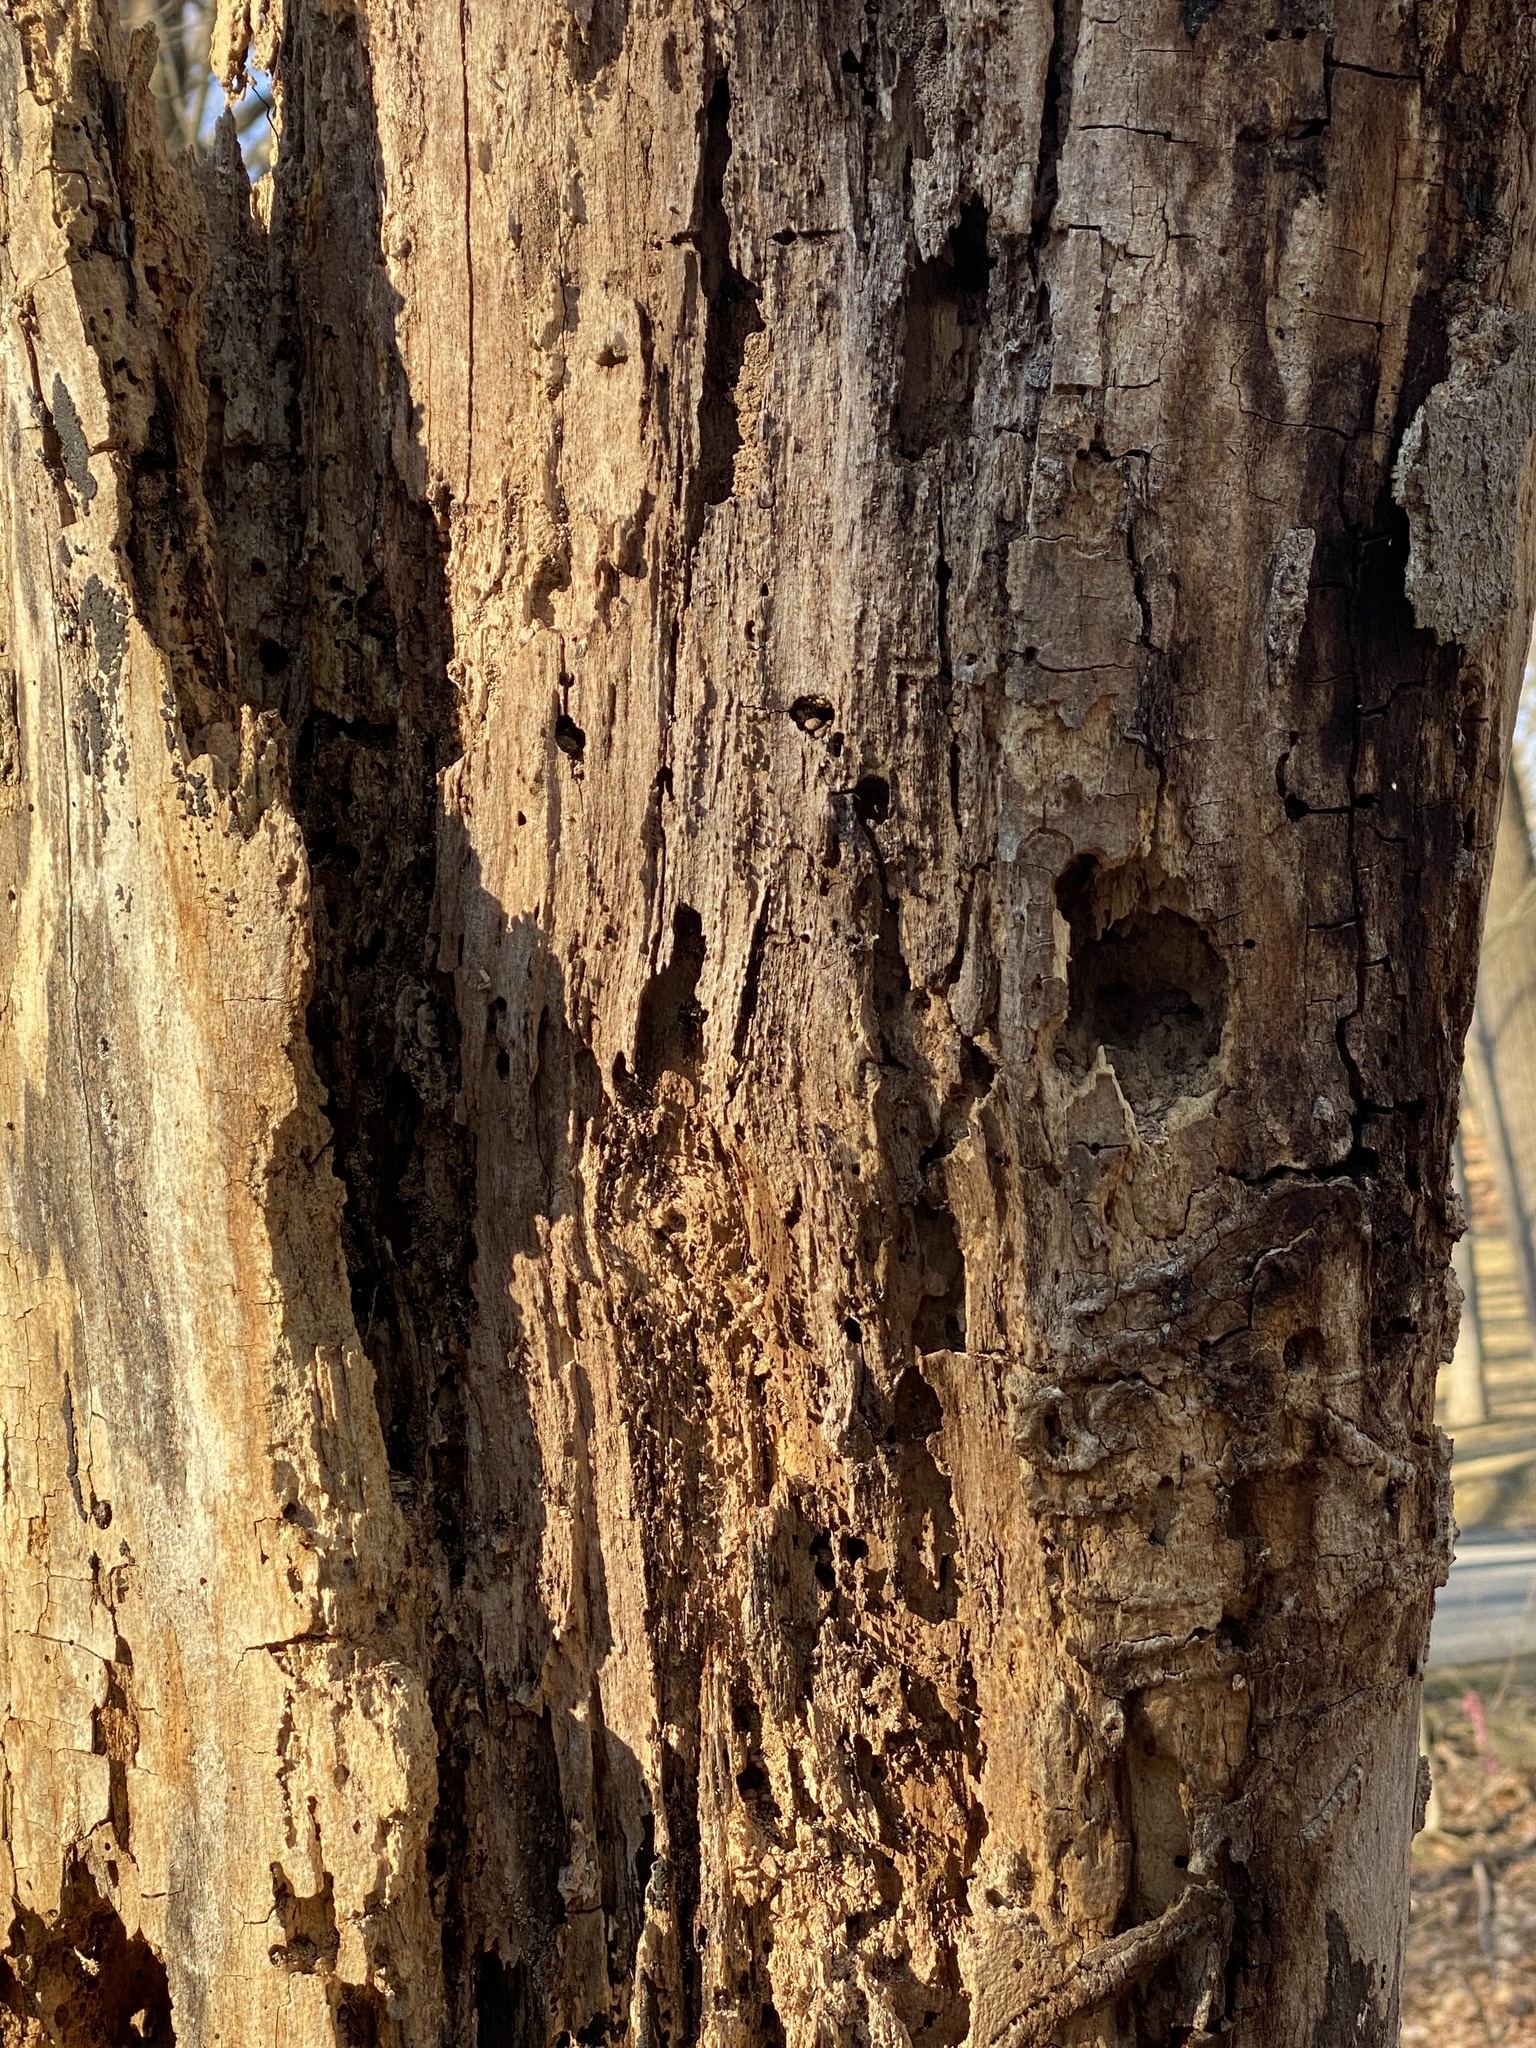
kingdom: Animalia
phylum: Chordata
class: Aves
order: Piciformes
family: Picidae
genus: Dryocopus
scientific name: Dryocopus pileatus
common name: Pileated woodpecker
